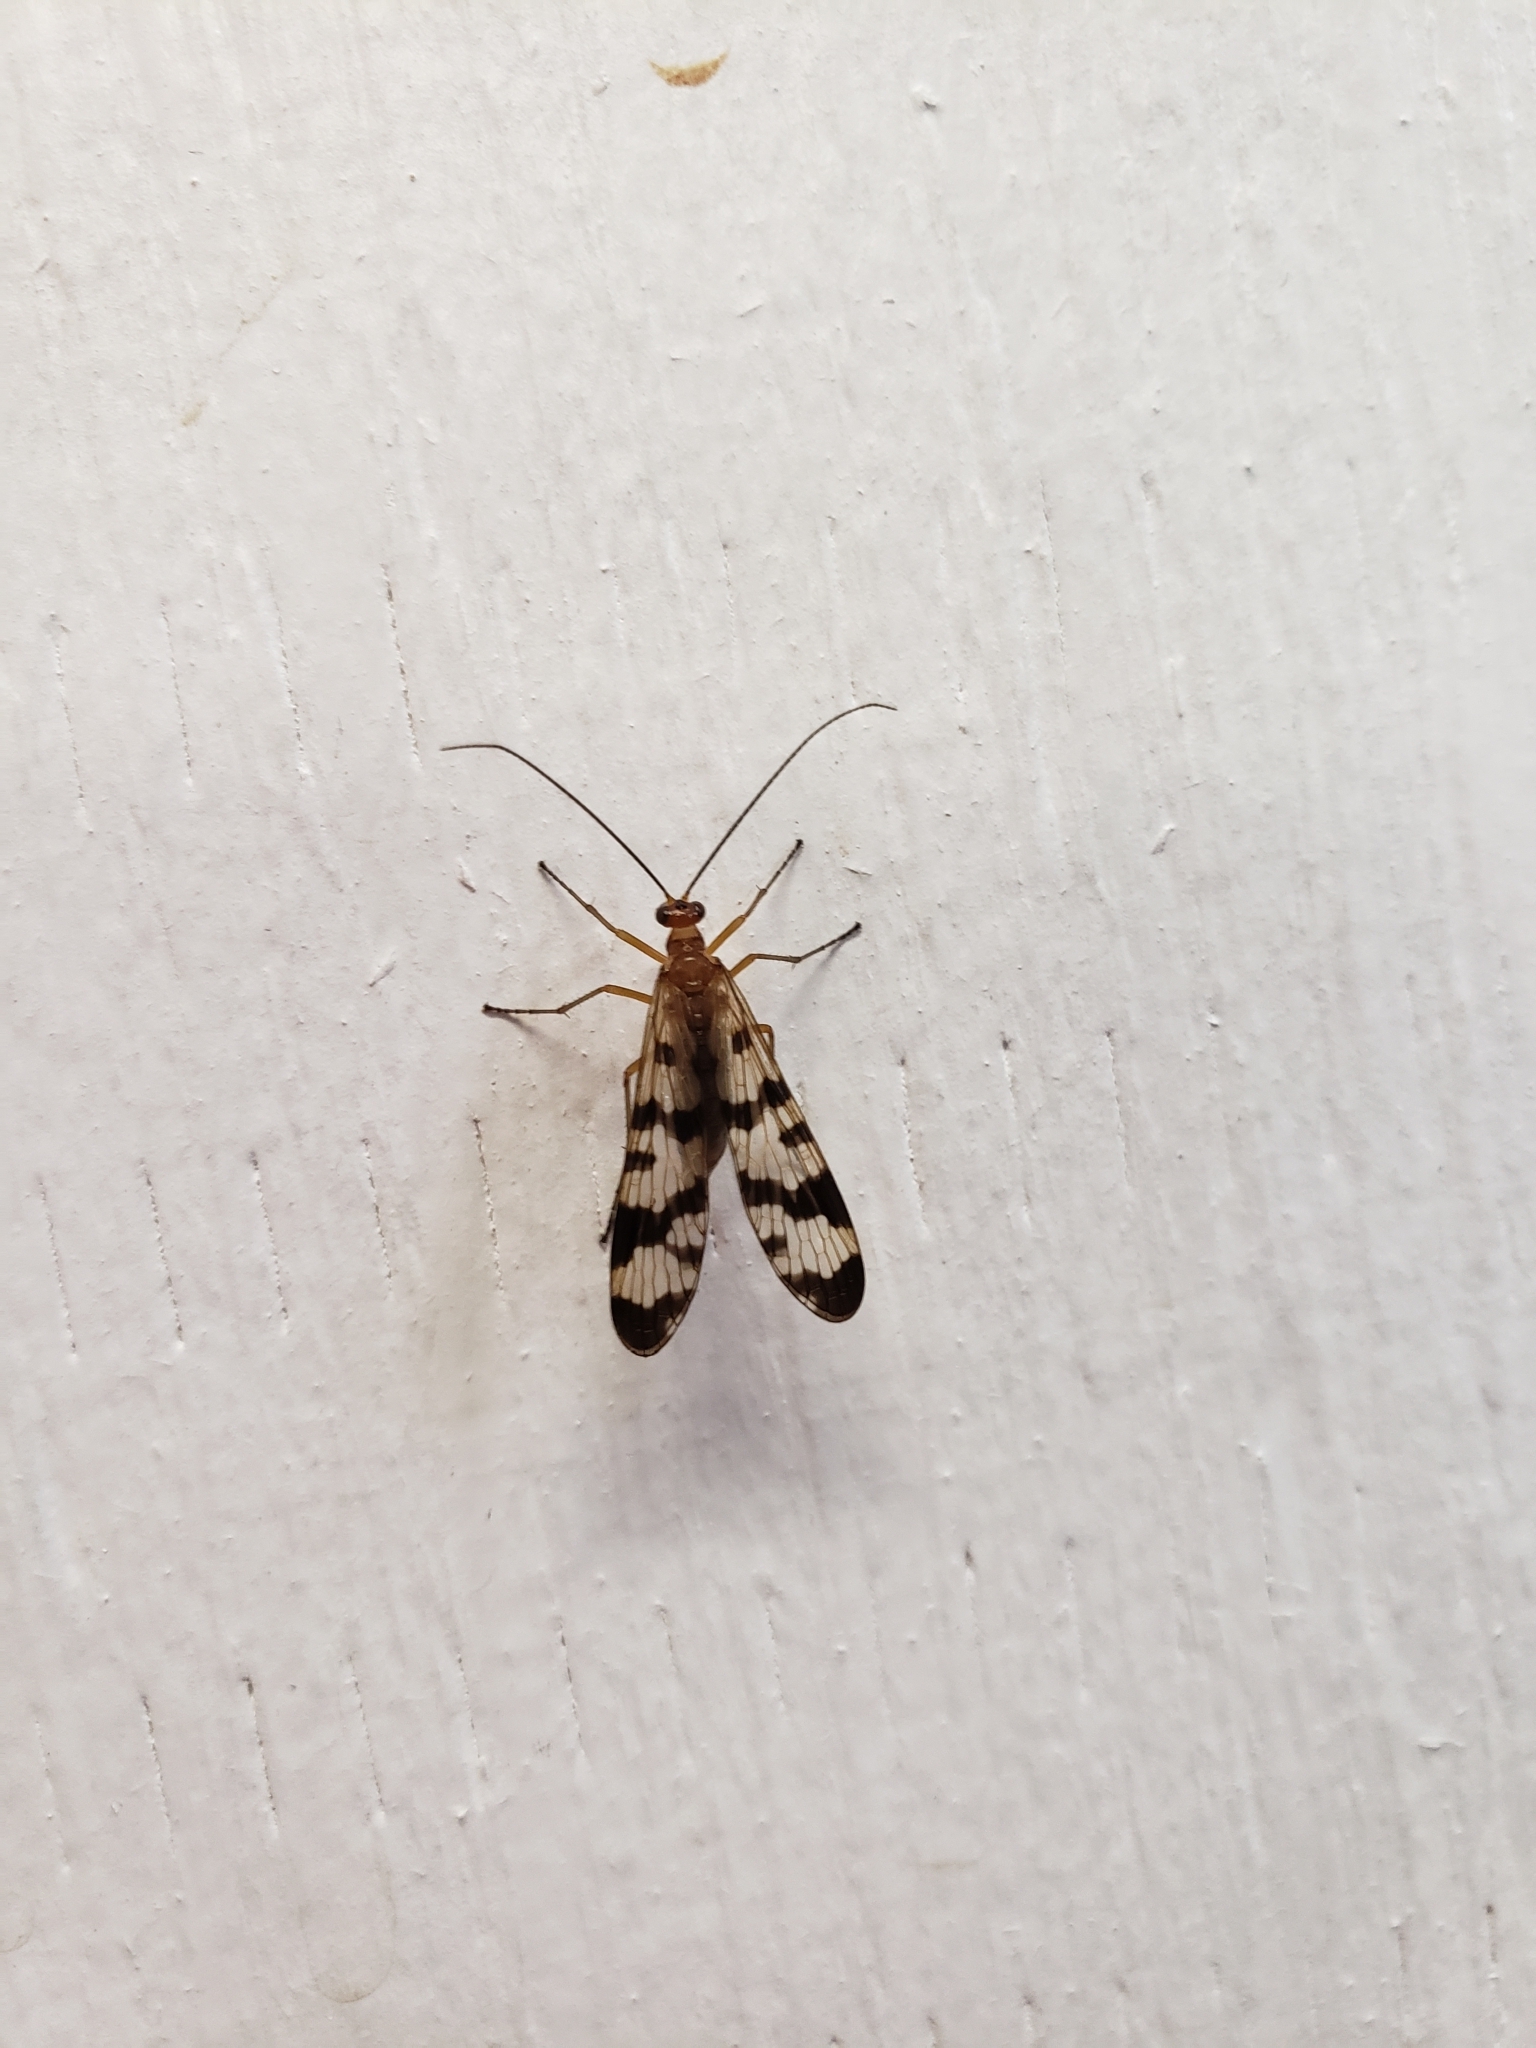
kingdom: Animalia
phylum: Arthropoda
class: Insecta
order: Mecoptera
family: Panorpidae
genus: Panorpa
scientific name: Panorpa subfurcata
